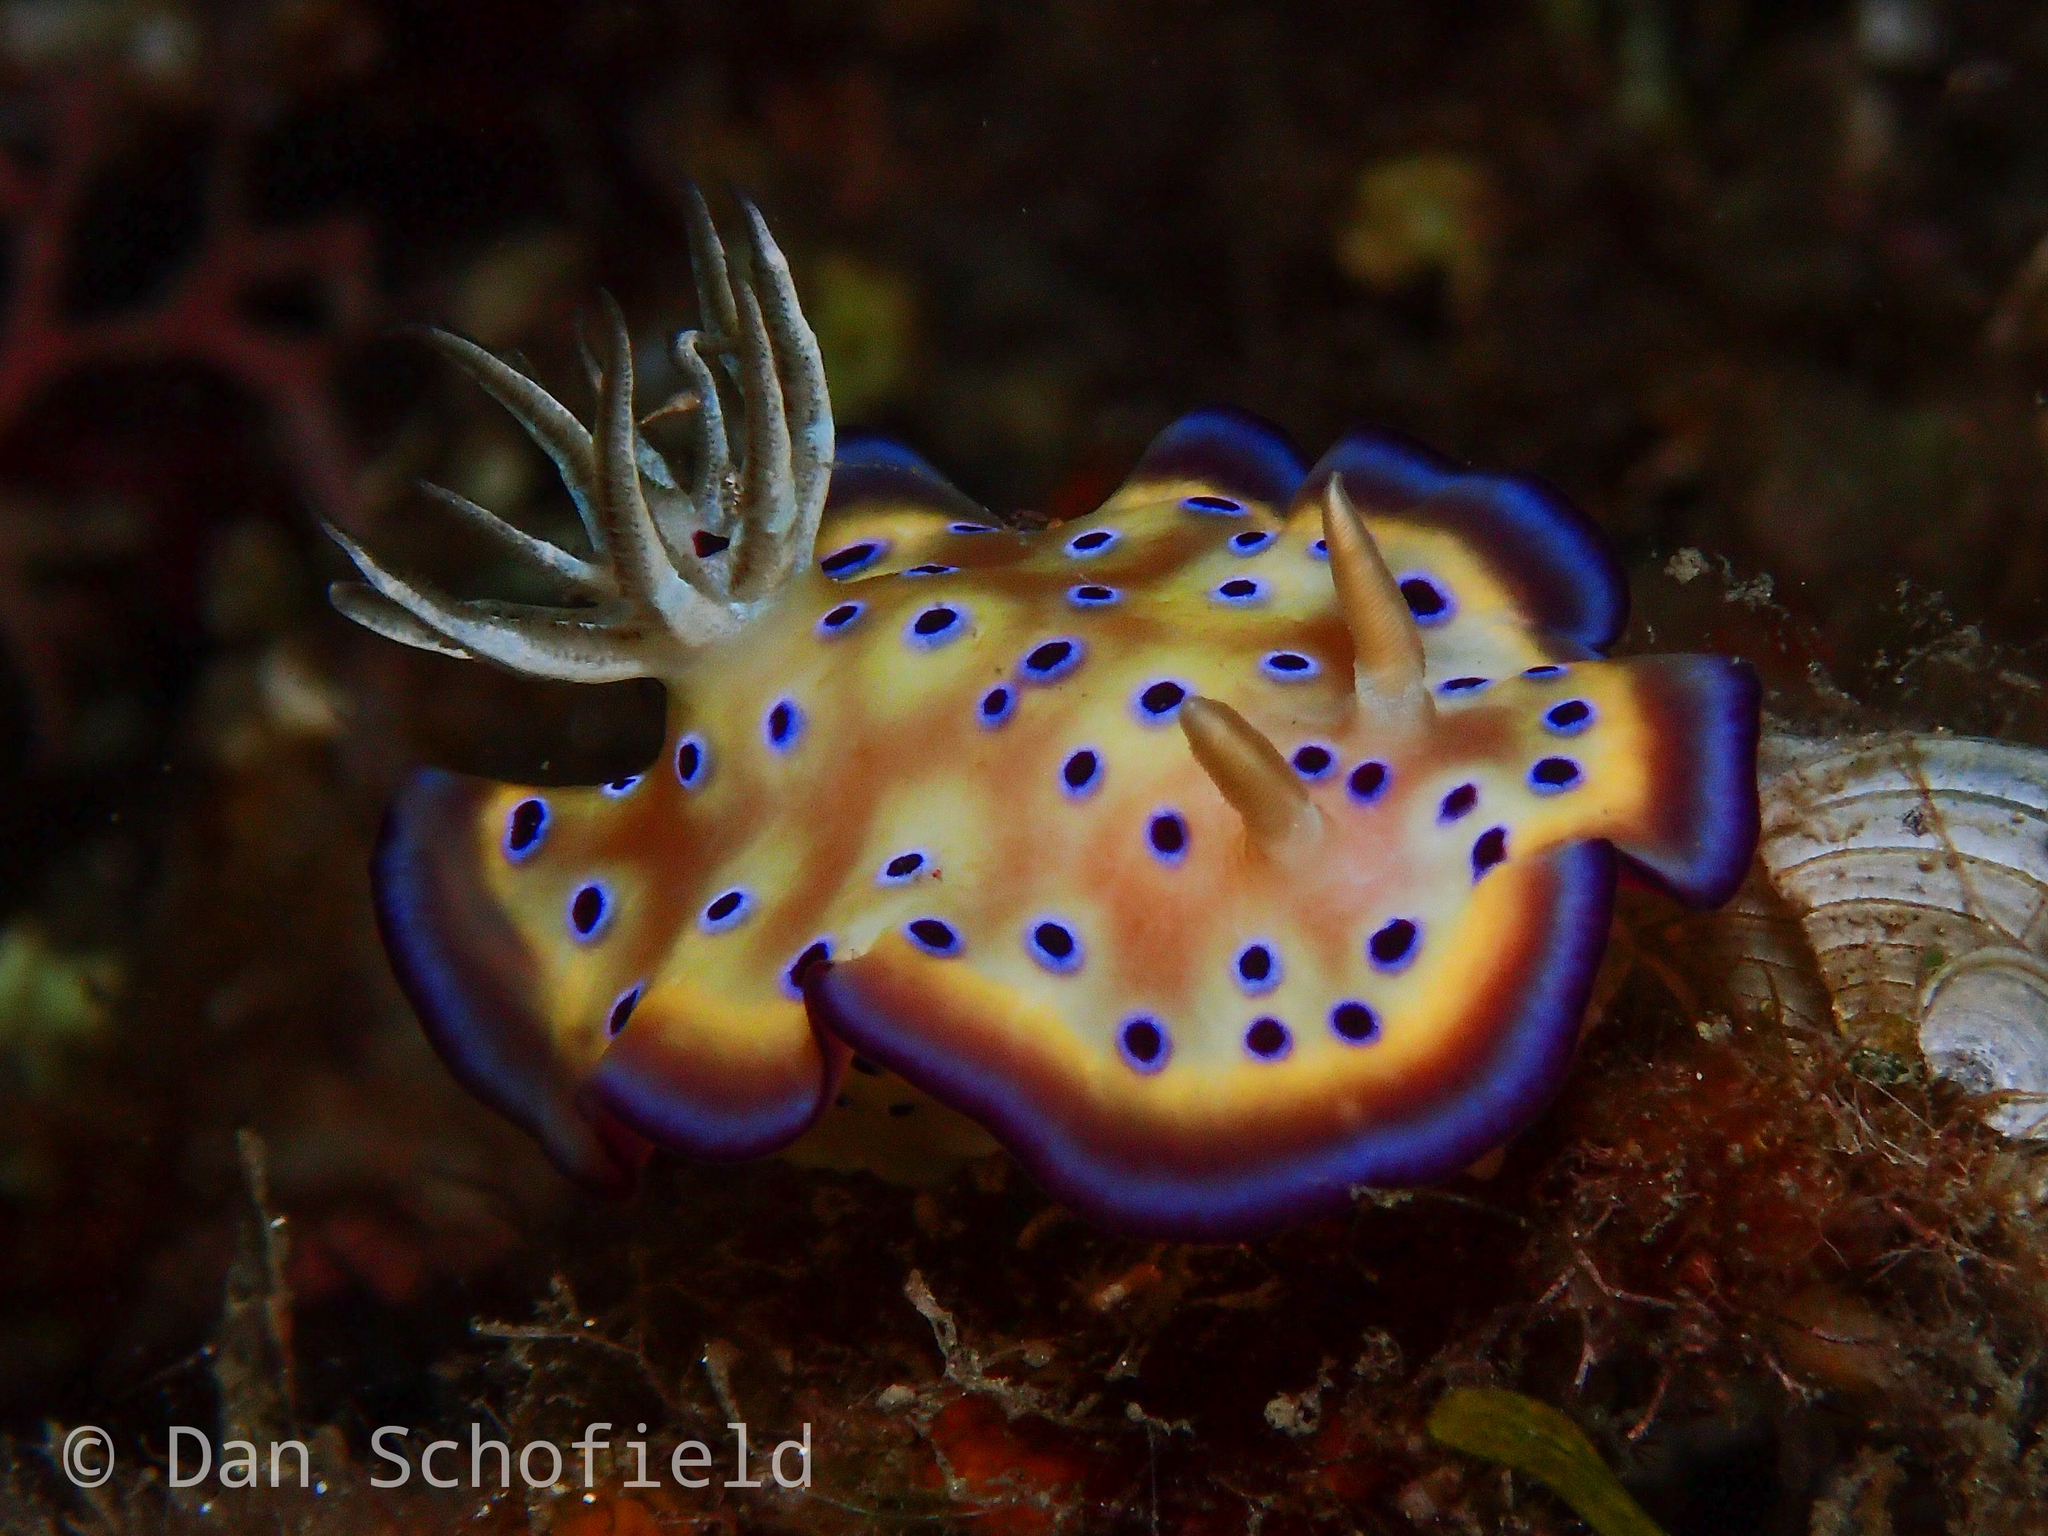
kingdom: Animalia
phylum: Mollusca
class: Gastropoda
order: Nudibranchia
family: Chromodorididae
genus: Goniobranchus
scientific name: Goniobranchus kuniei
